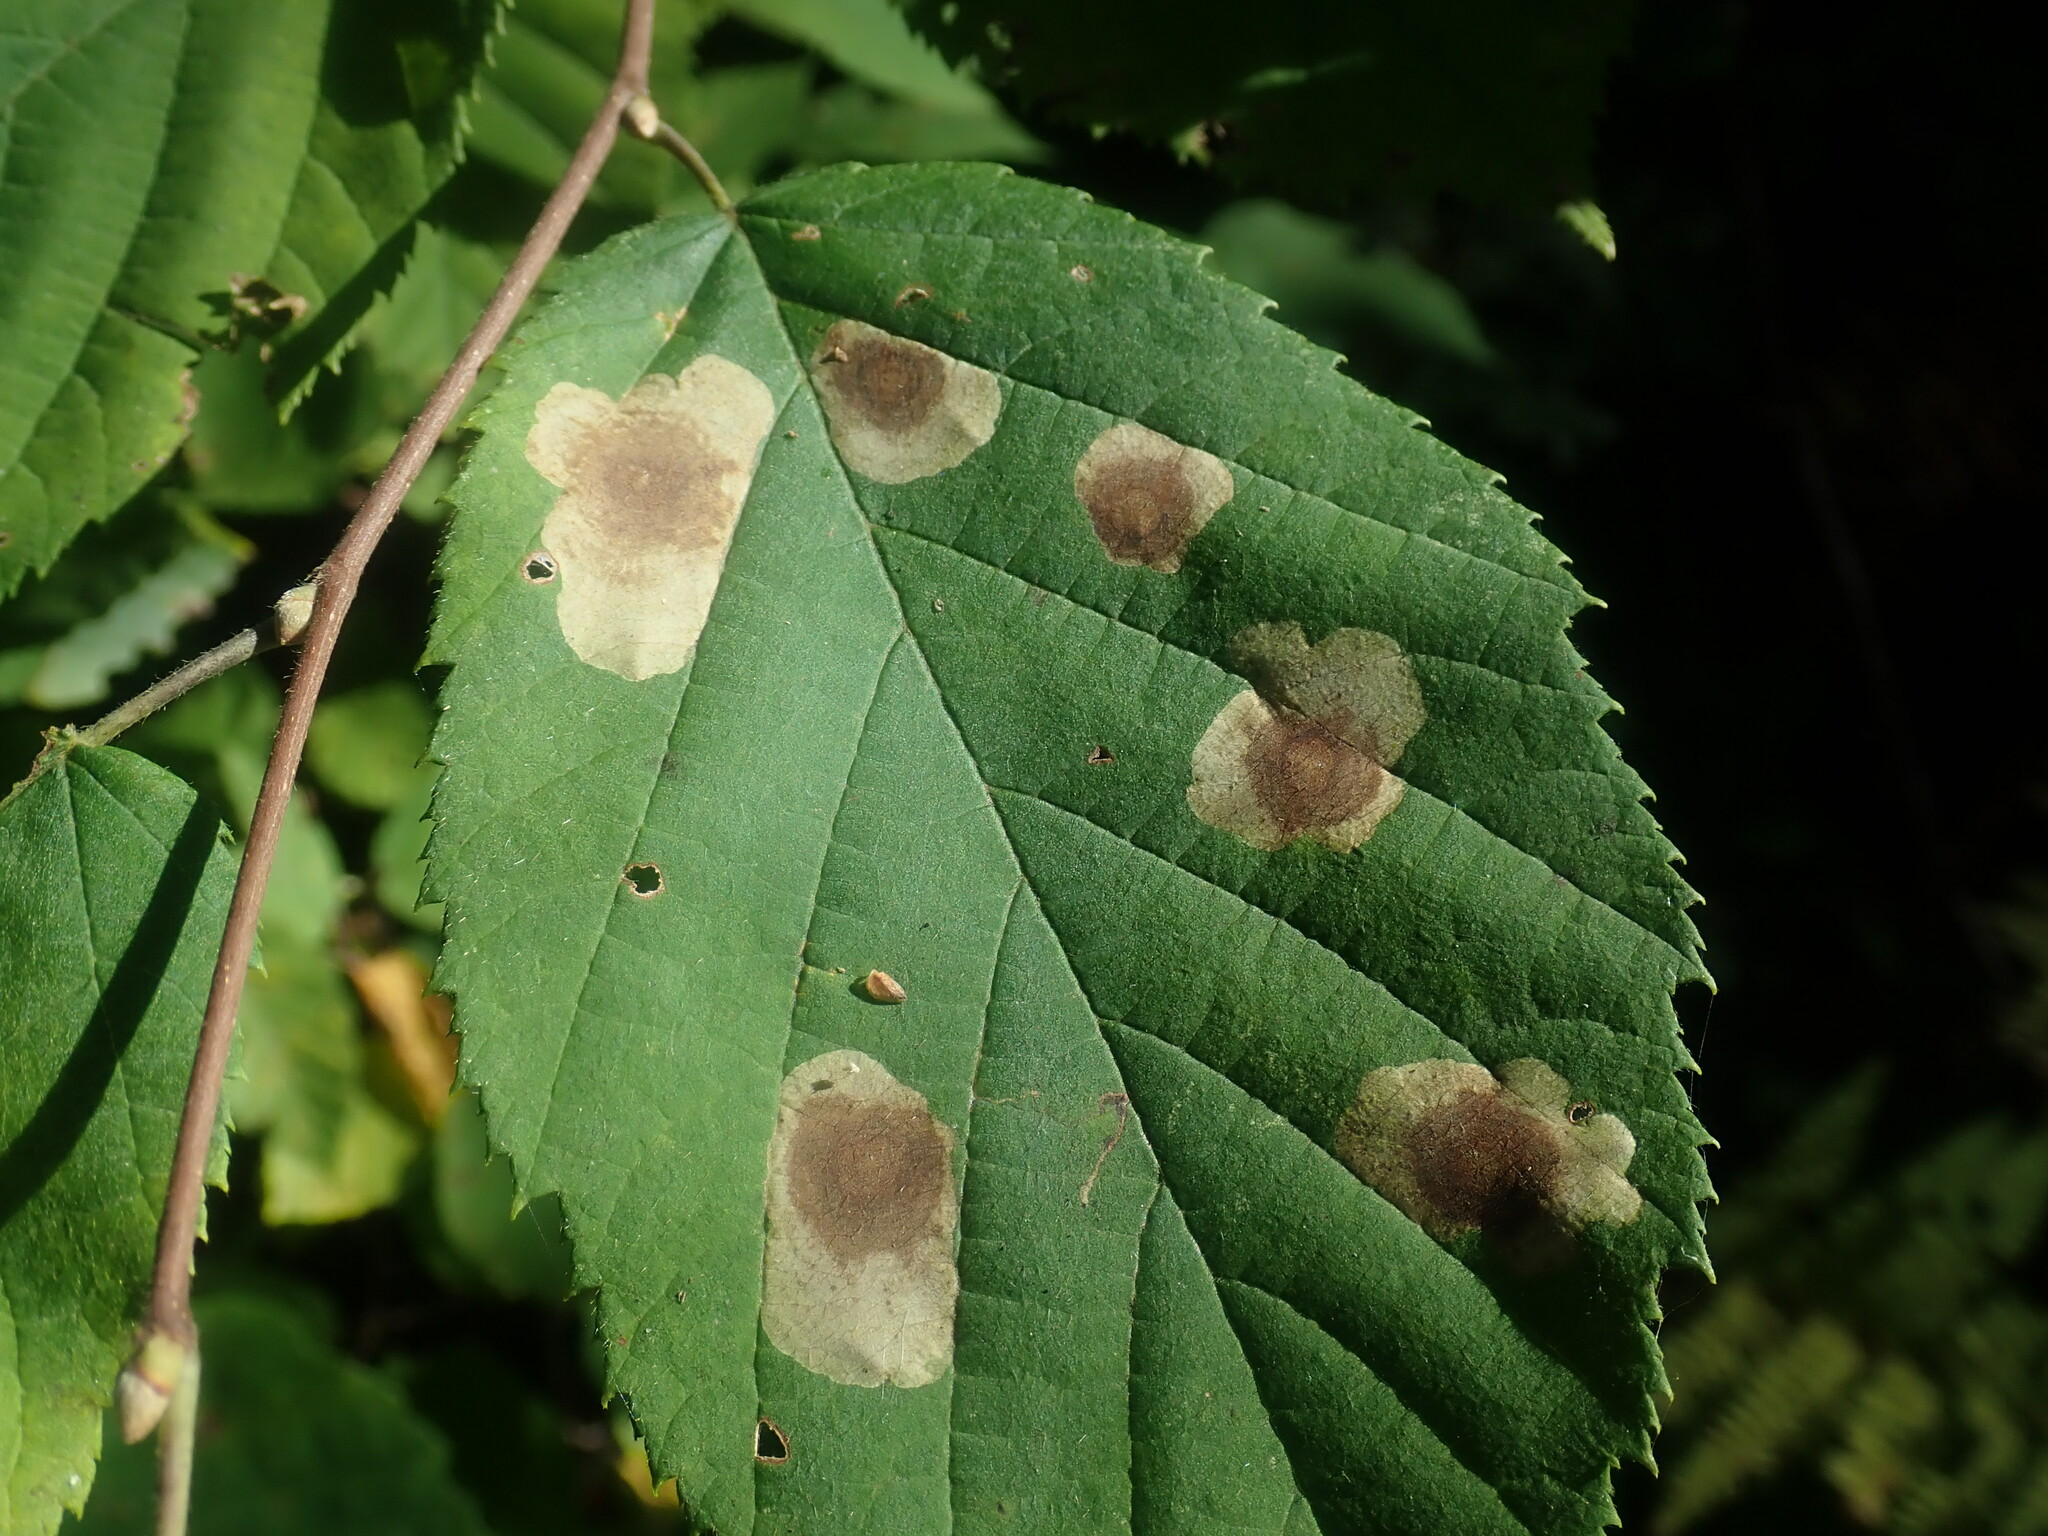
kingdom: Animalia
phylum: Arthropoda
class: Insecta
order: Lepidoptera
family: Gracillariidae
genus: Cameraria
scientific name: Cameraria corylisella
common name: Hazel blotchminer
